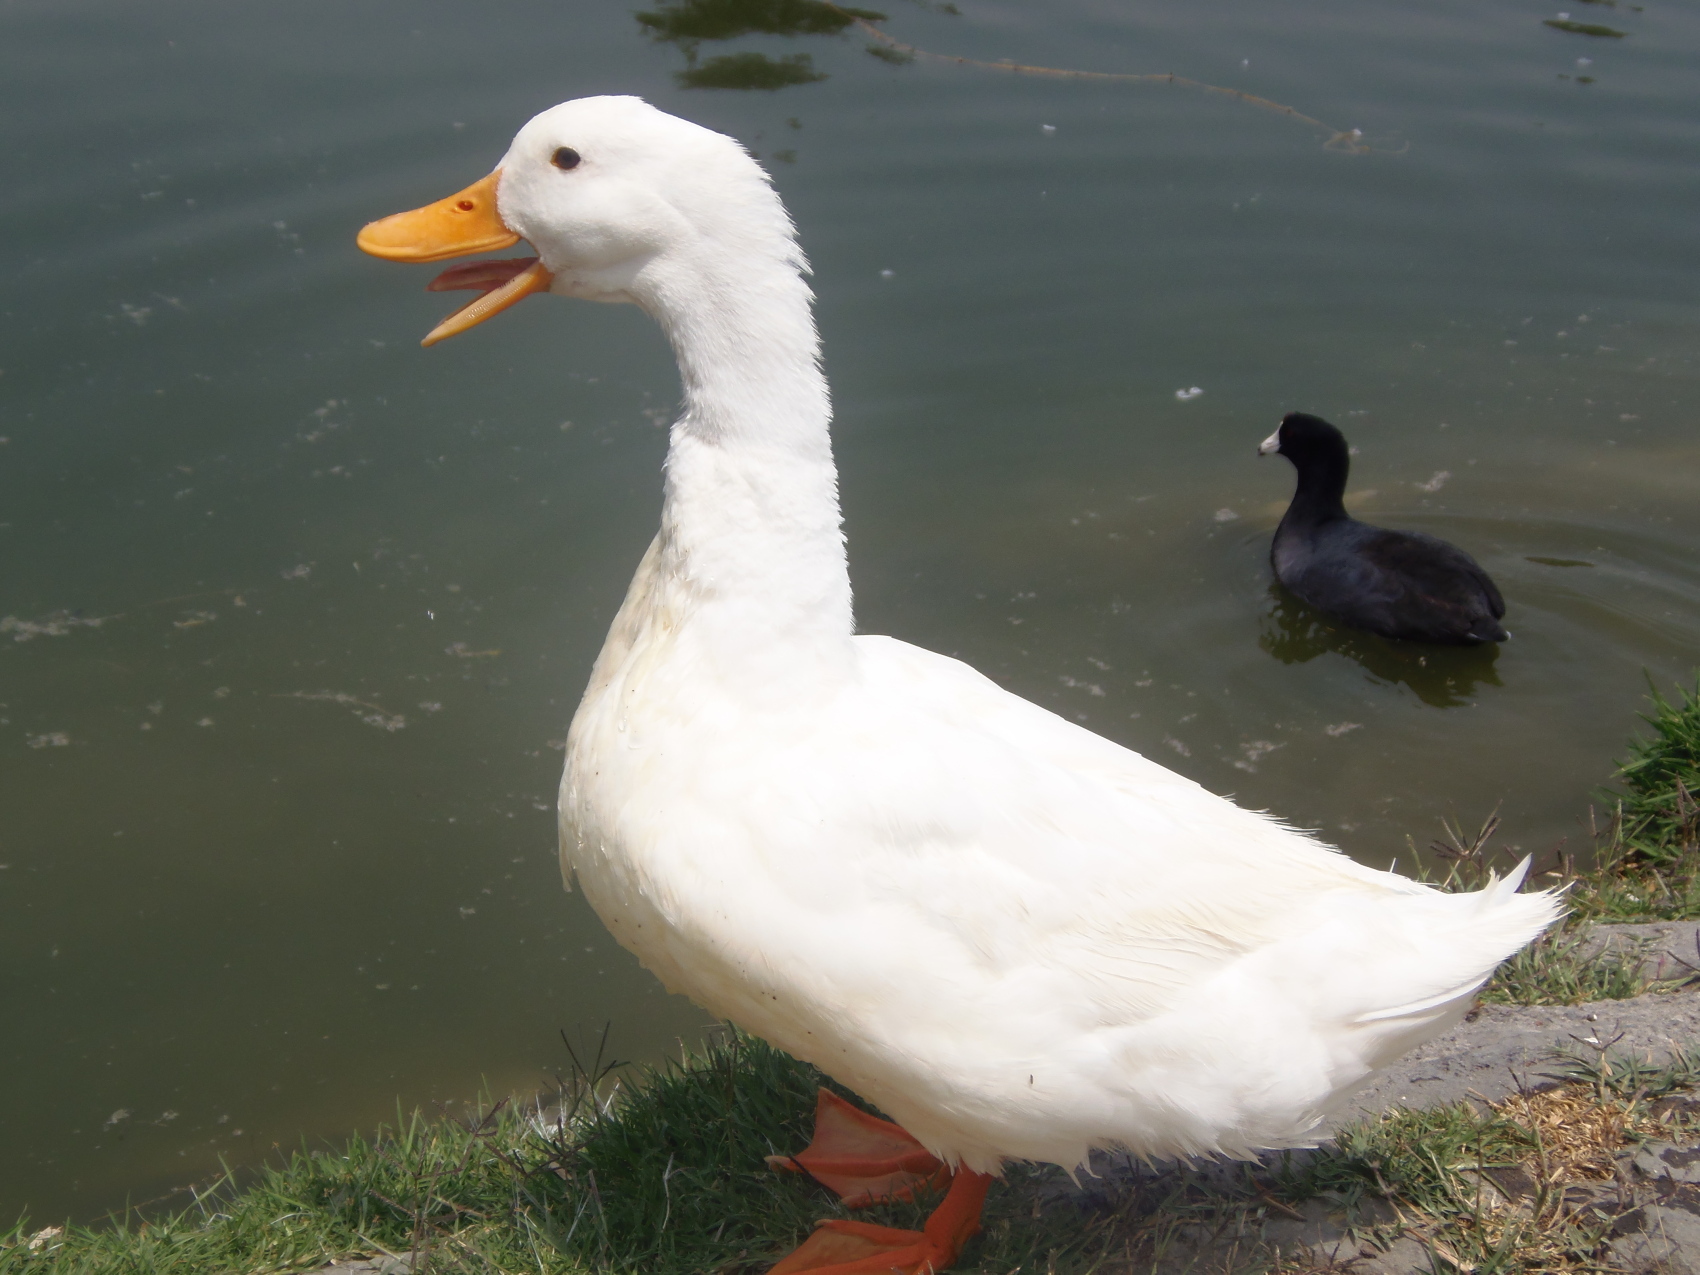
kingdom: Animalia
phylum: Chordata
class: Aves
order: Anseriformes
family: Anatidae
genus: Anas
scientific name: Anas platyrhynchos
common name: Mallard
